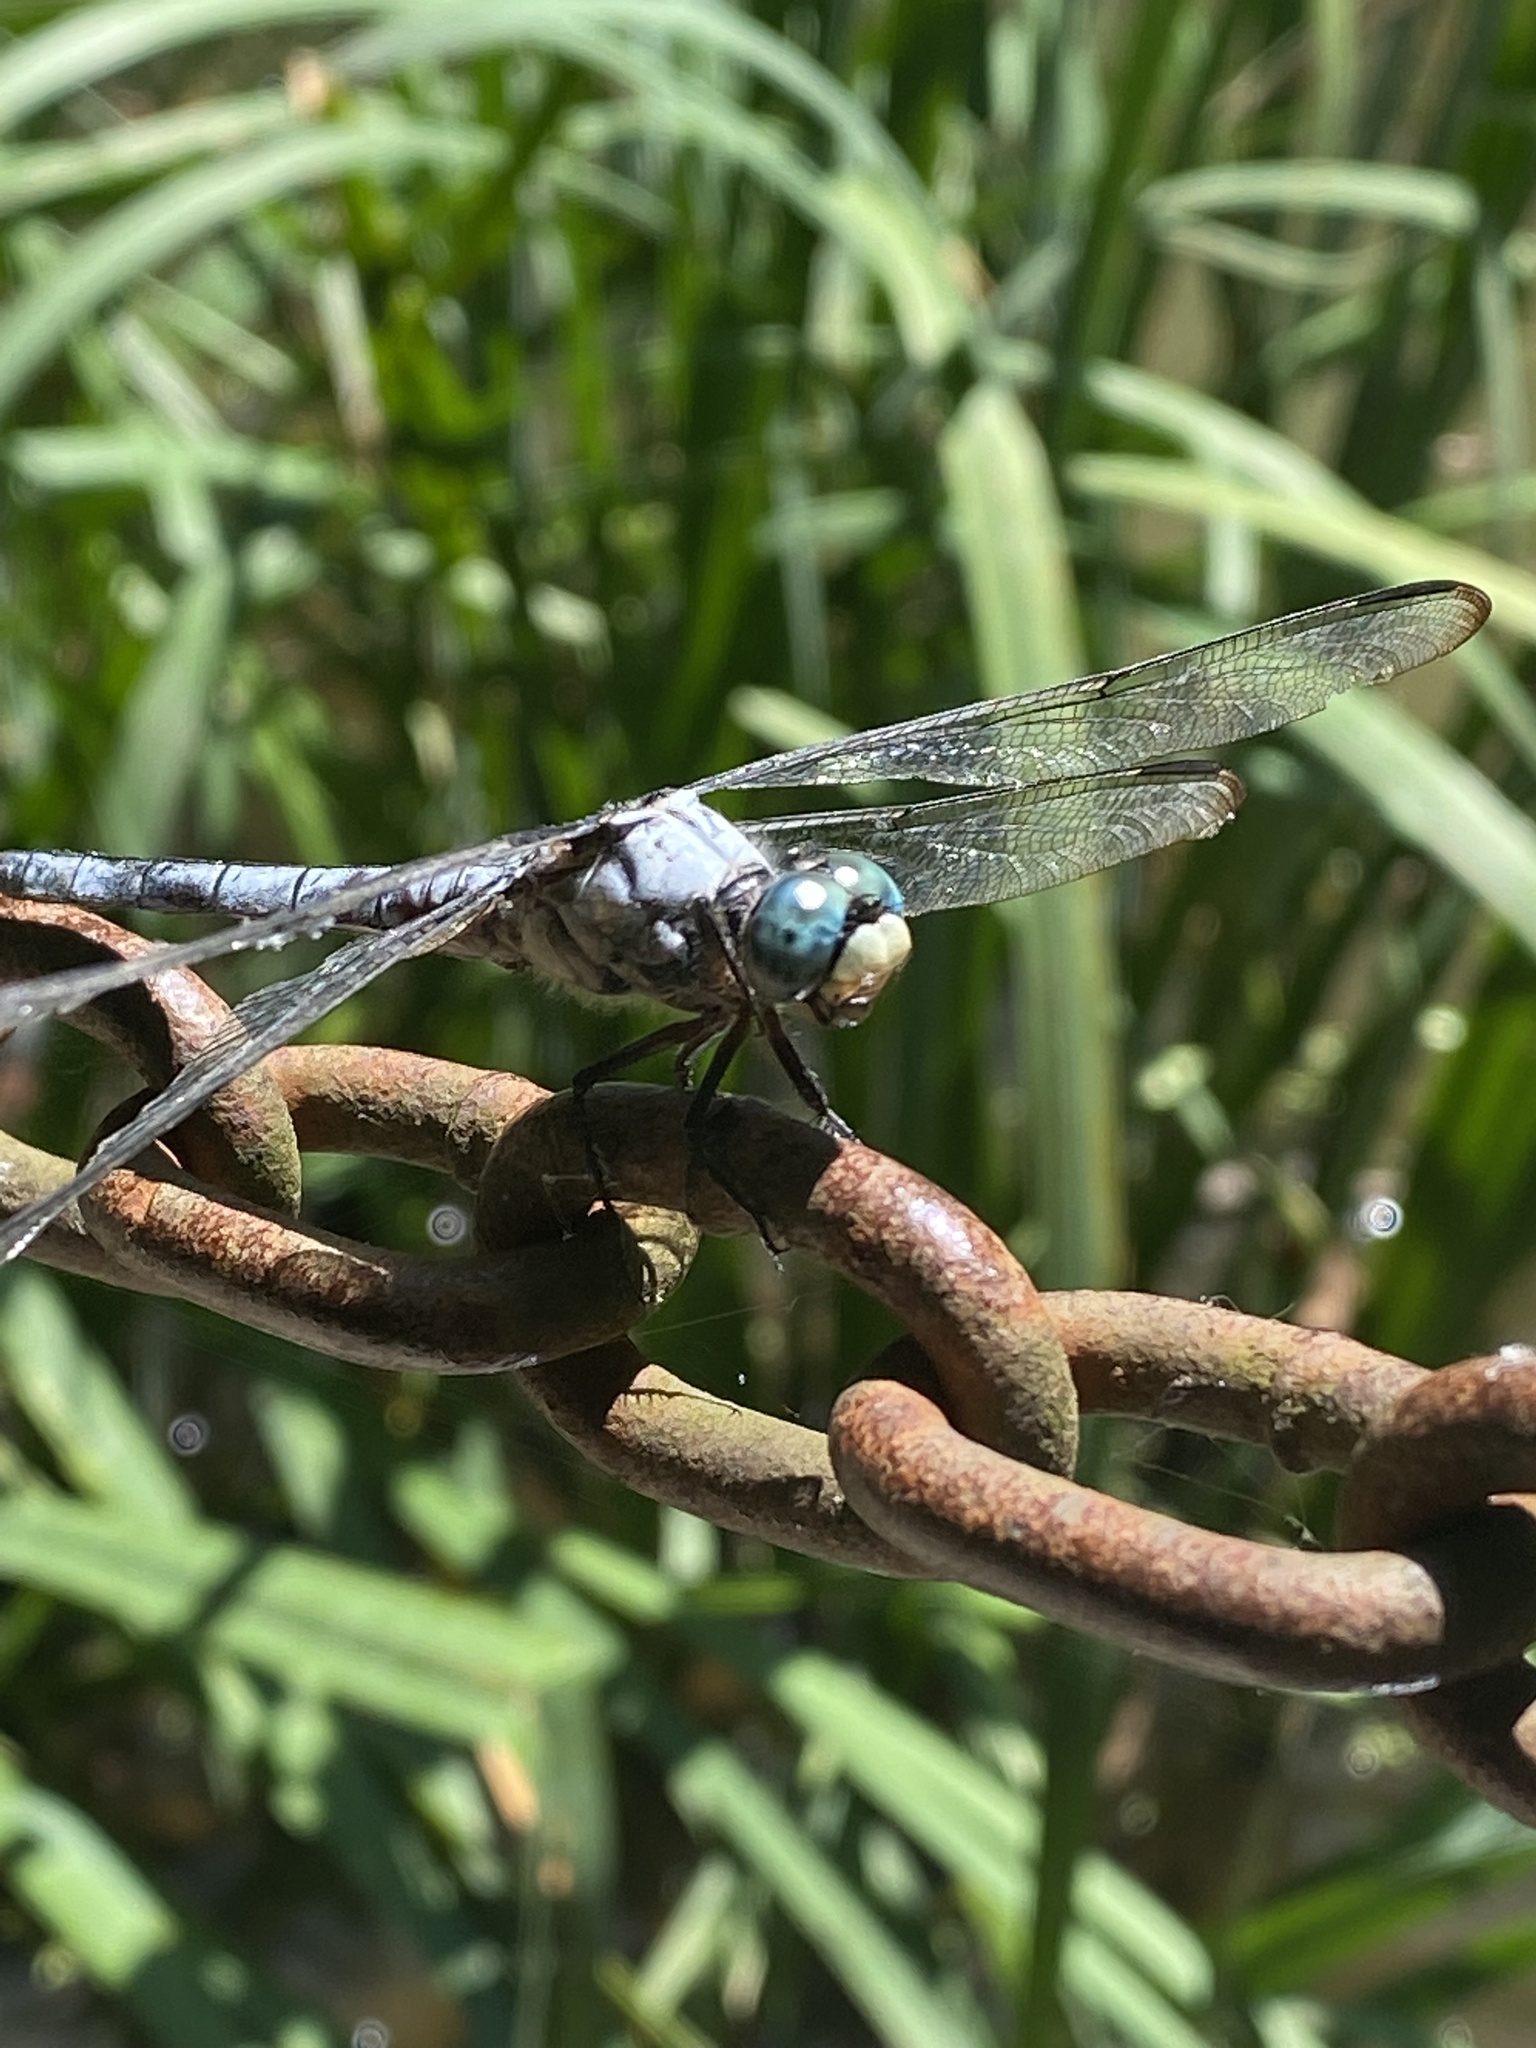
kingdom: Animalia
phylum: Arthropoda
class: Insecta
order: Odonata
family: Libellulidae
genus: Libellula
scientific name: Libellula vibrans
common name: Great blue skimmer
